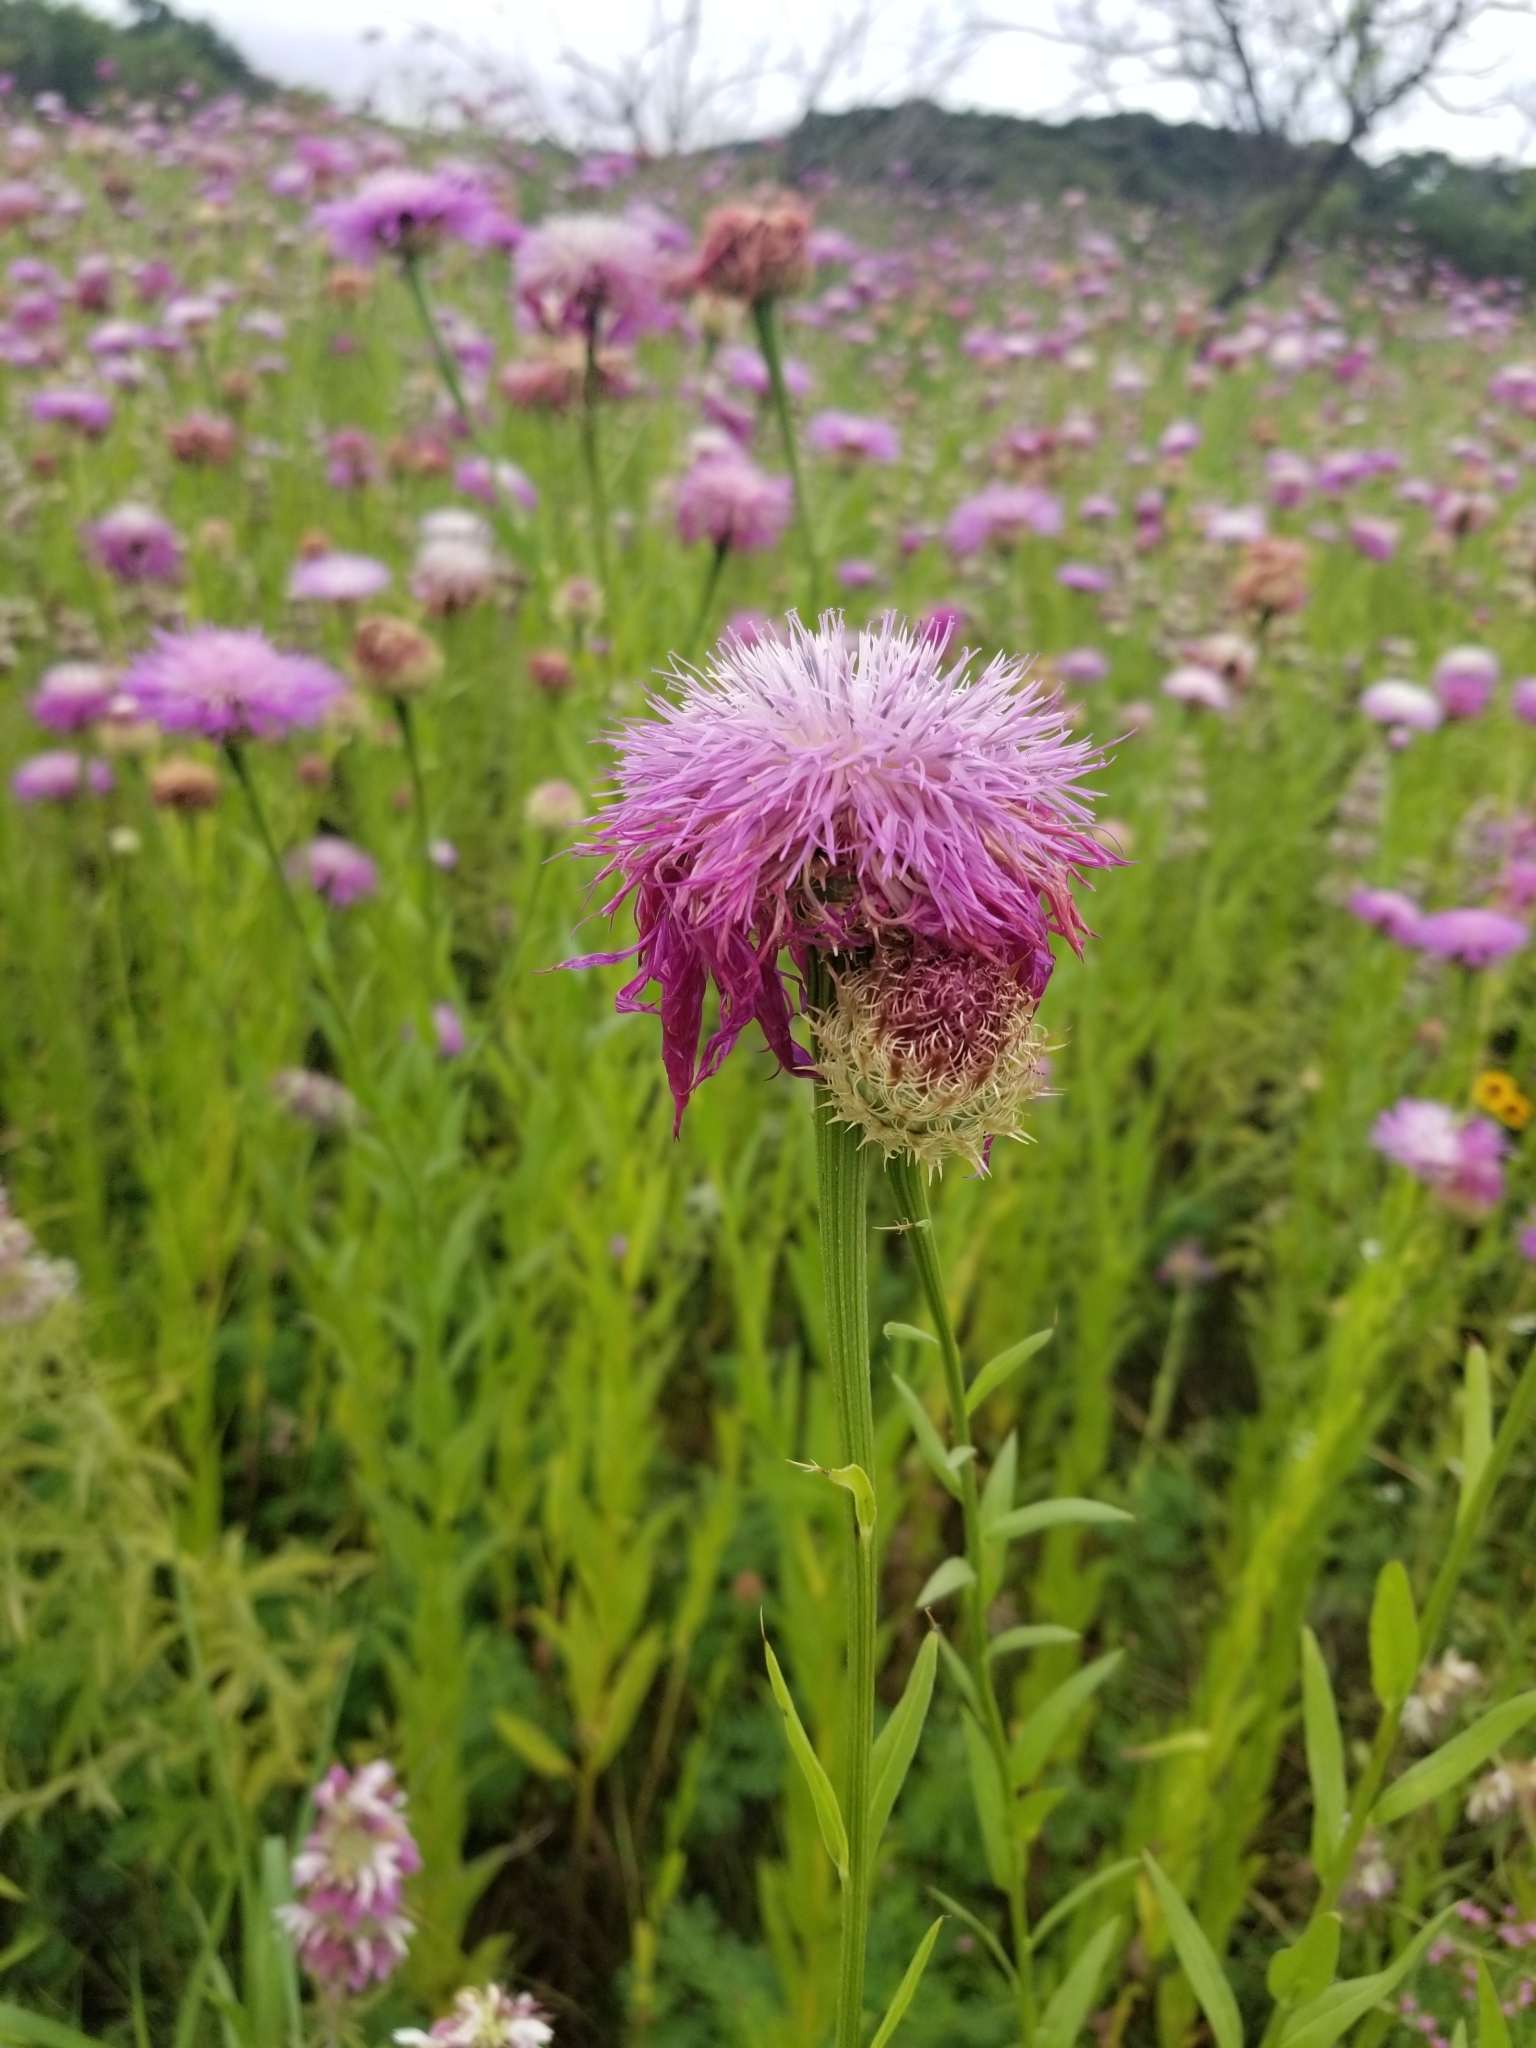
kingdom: Plantae
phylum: Tracheophyta
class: Magnoliopsida
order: Asterales
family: Asteraceae
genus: Plectocephalus
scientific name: Plectocephalus americanus
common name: American basket-flower
